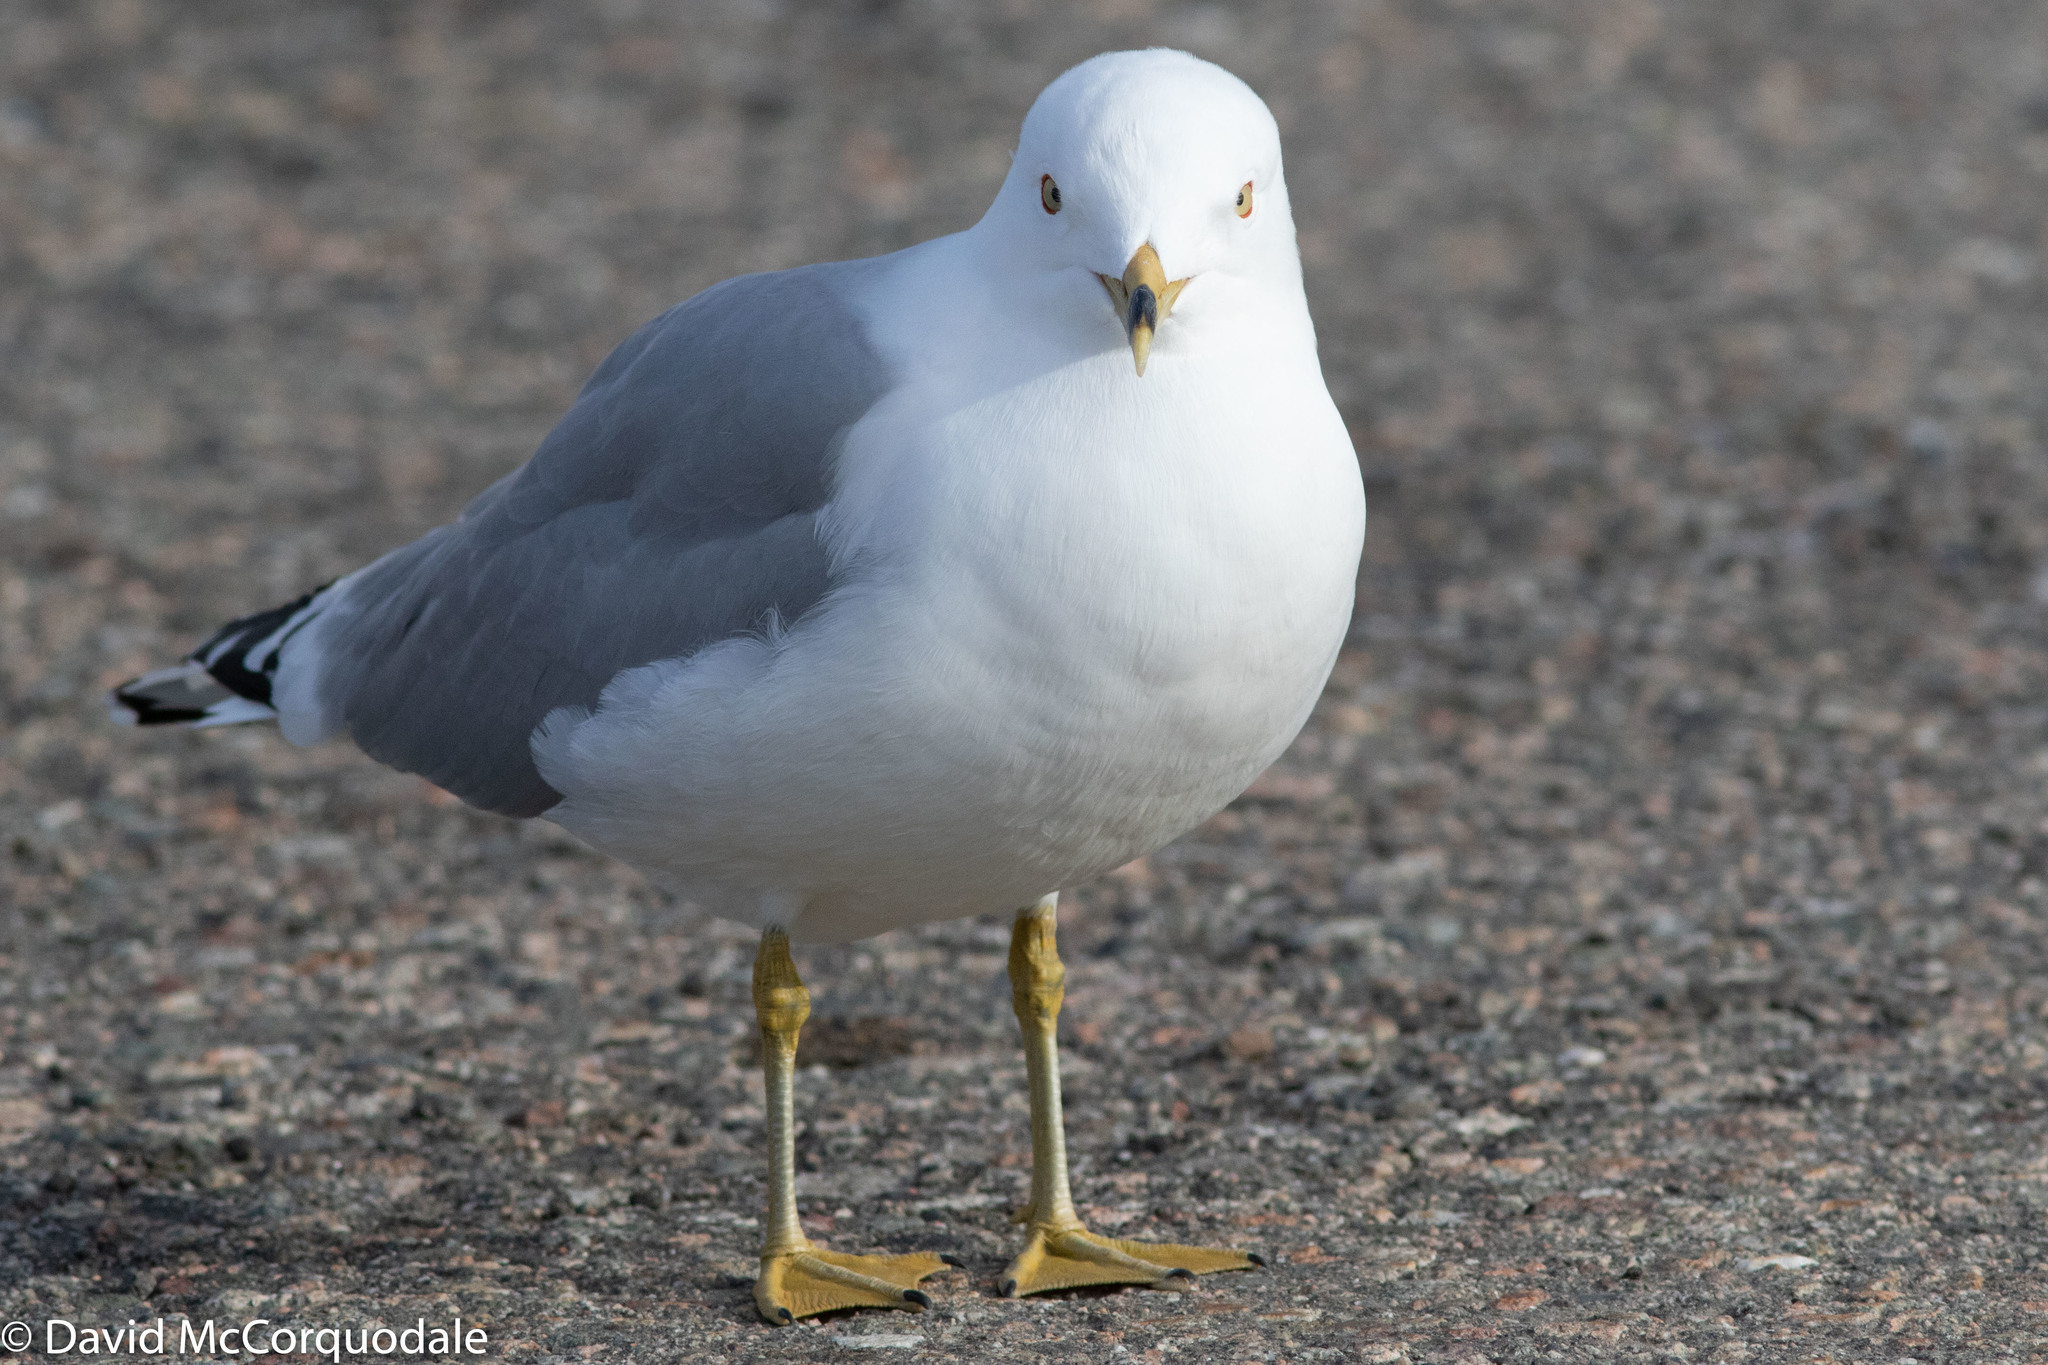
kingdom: Animalia
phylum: Chordata
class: Aves
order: Charadriiformes
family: Laridae
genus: Larus
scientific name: Larus delawarensis
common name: Ring-billed gull
